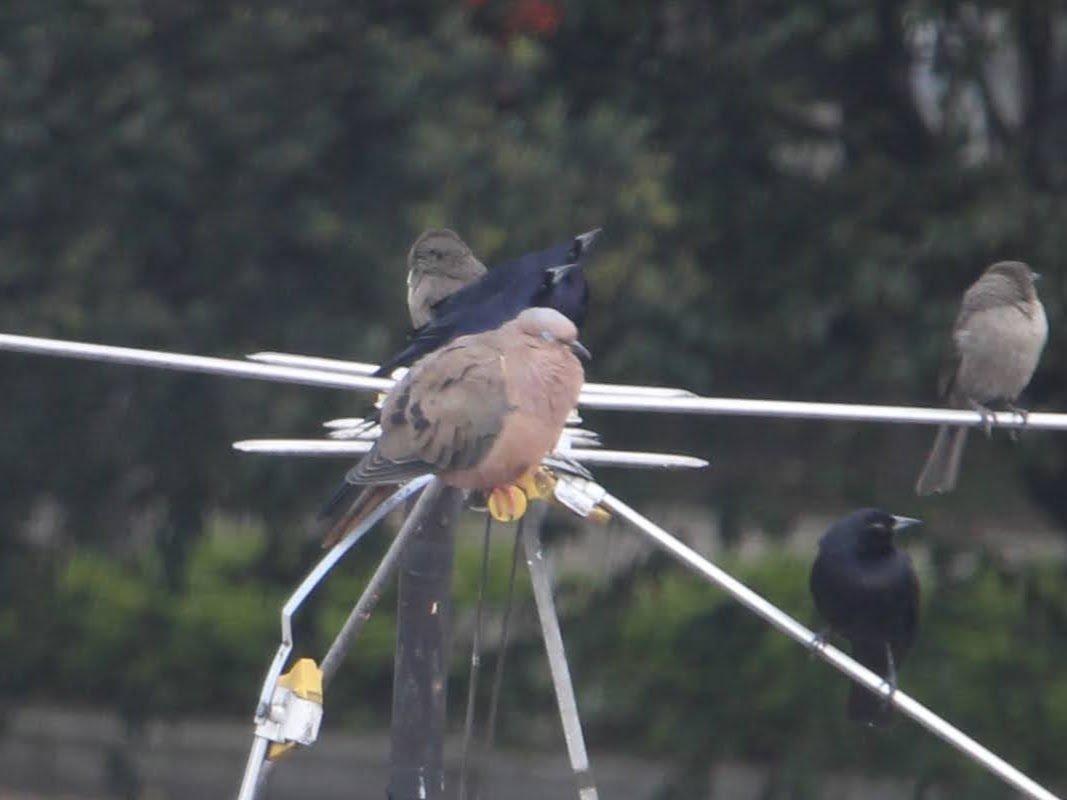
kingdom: Animalia
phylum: Chordata
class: Aves
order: Columbiformes
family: Columbidae
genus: Zenaida
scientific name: Zenaida auriculata
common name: Eared dove
